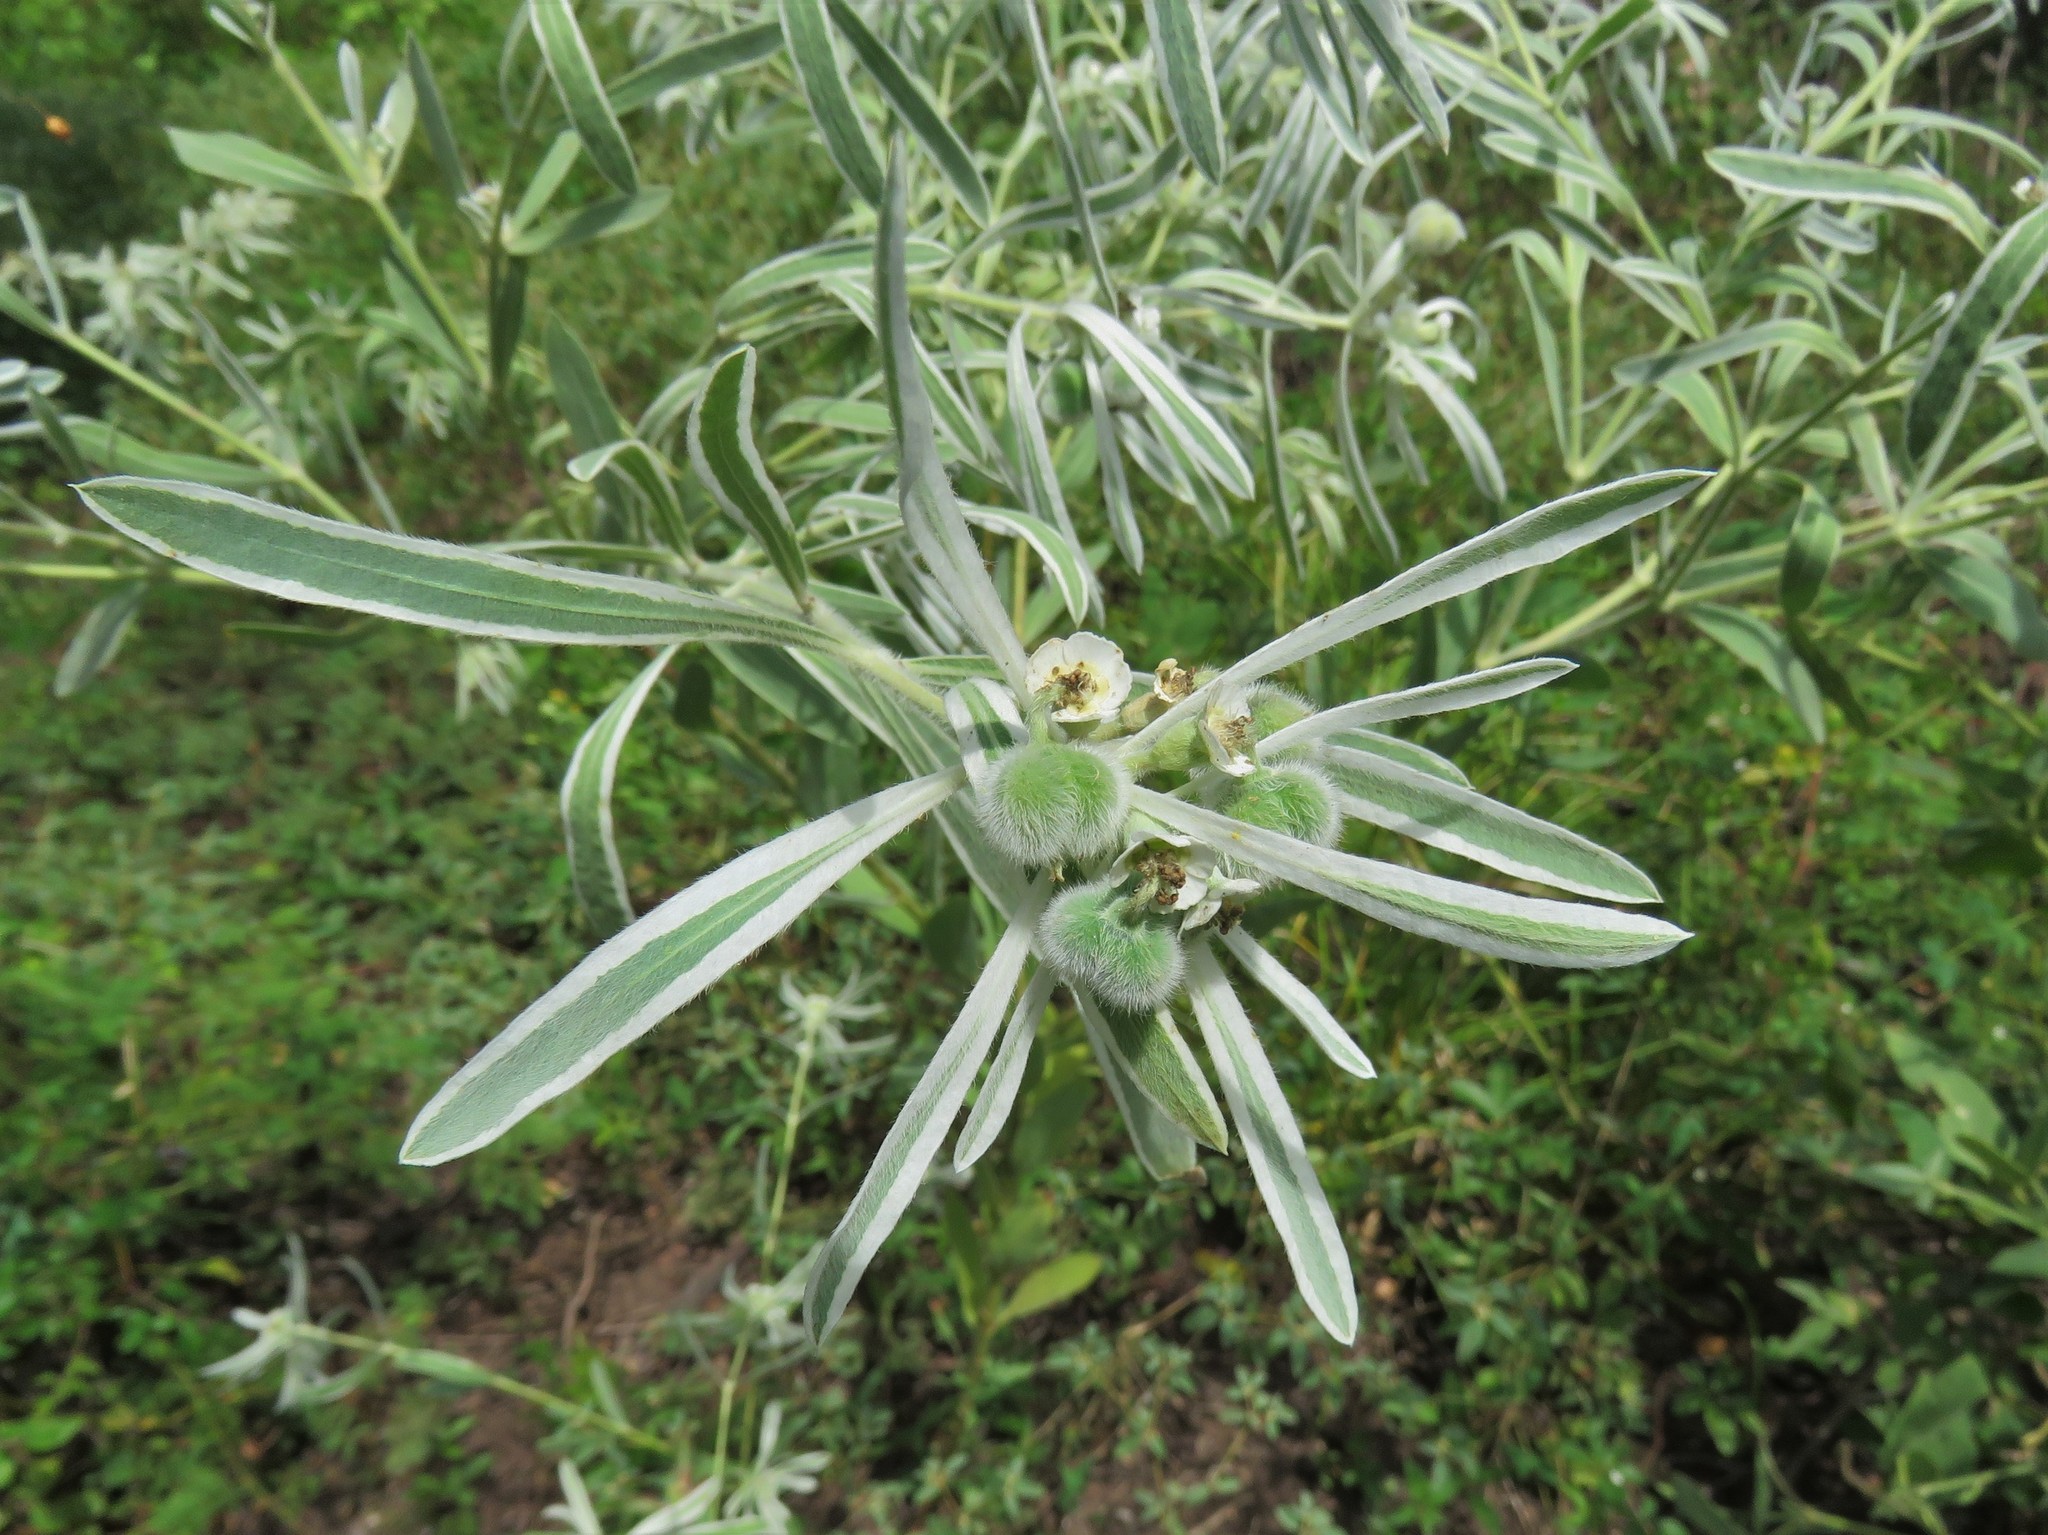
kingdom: Plantae
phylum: Tracheophyta
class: Magnoliopsida
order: Malpighiales
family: Euphorbiaceae
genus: Euphorbia
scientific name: Euphorbia bicolor
